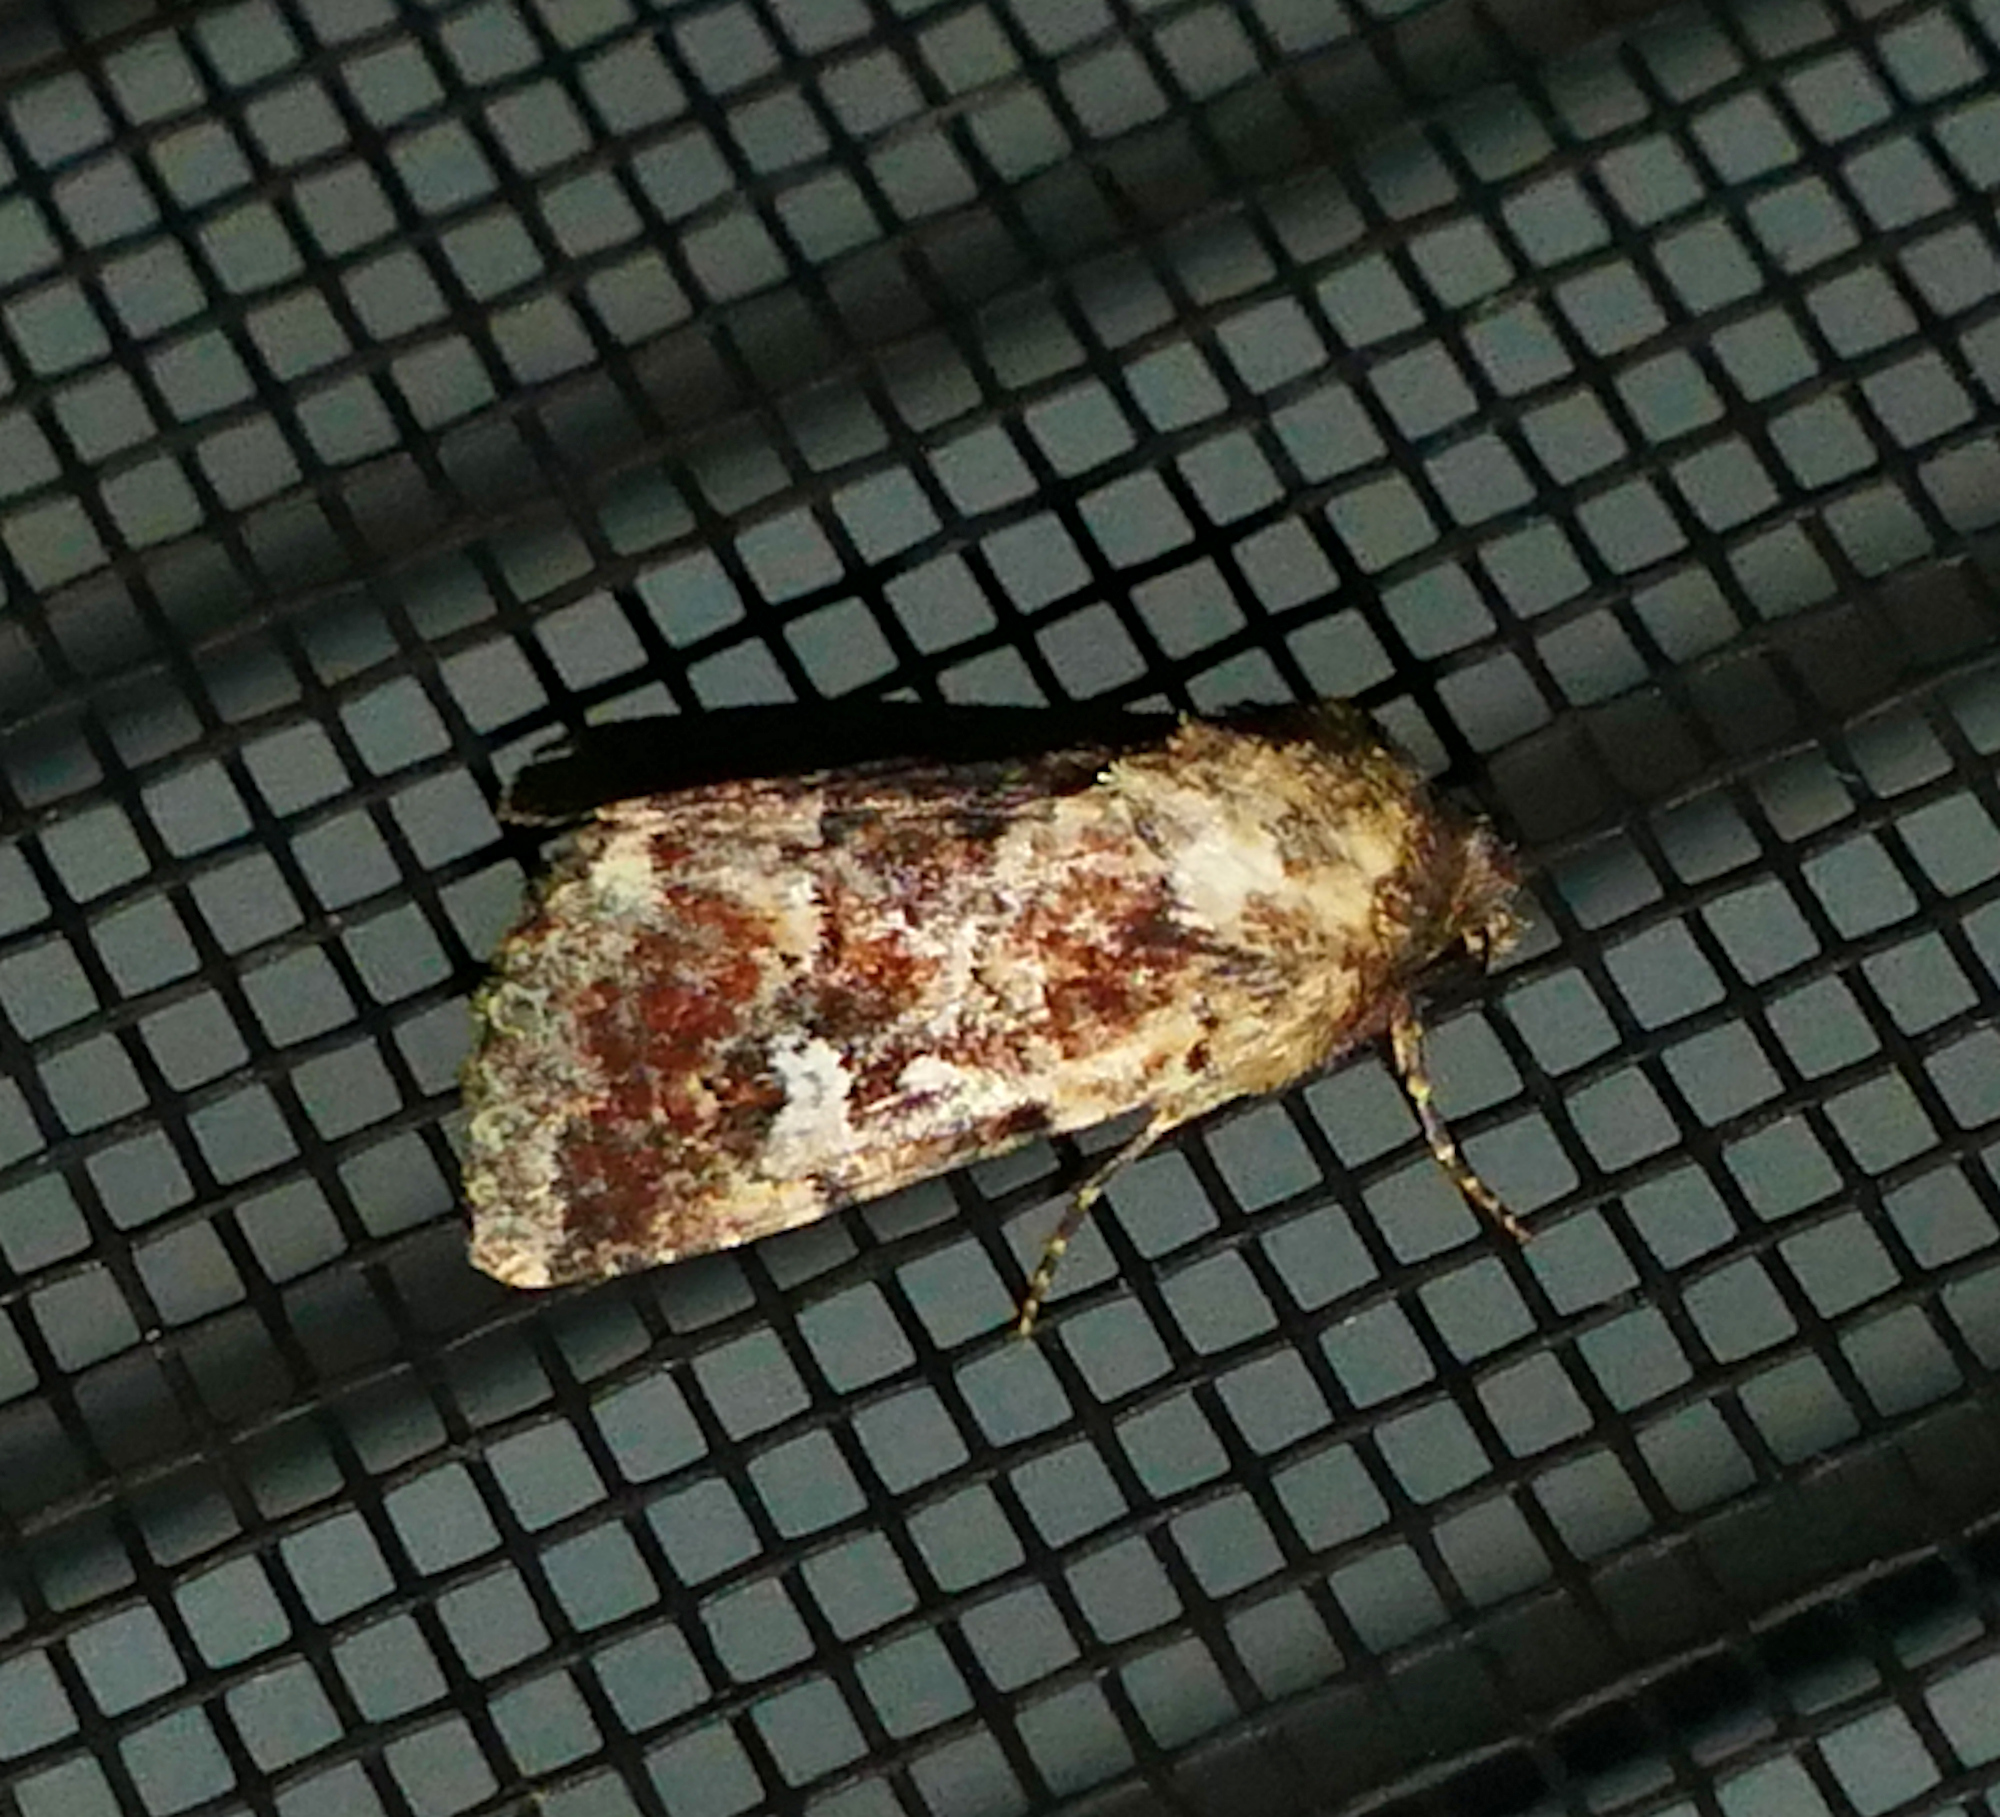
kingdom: Animalia
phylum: Arthropoda
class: Insecta
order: Lepidoptera
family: Noctuidae
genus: Properigea
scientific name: Properigea tapeta
